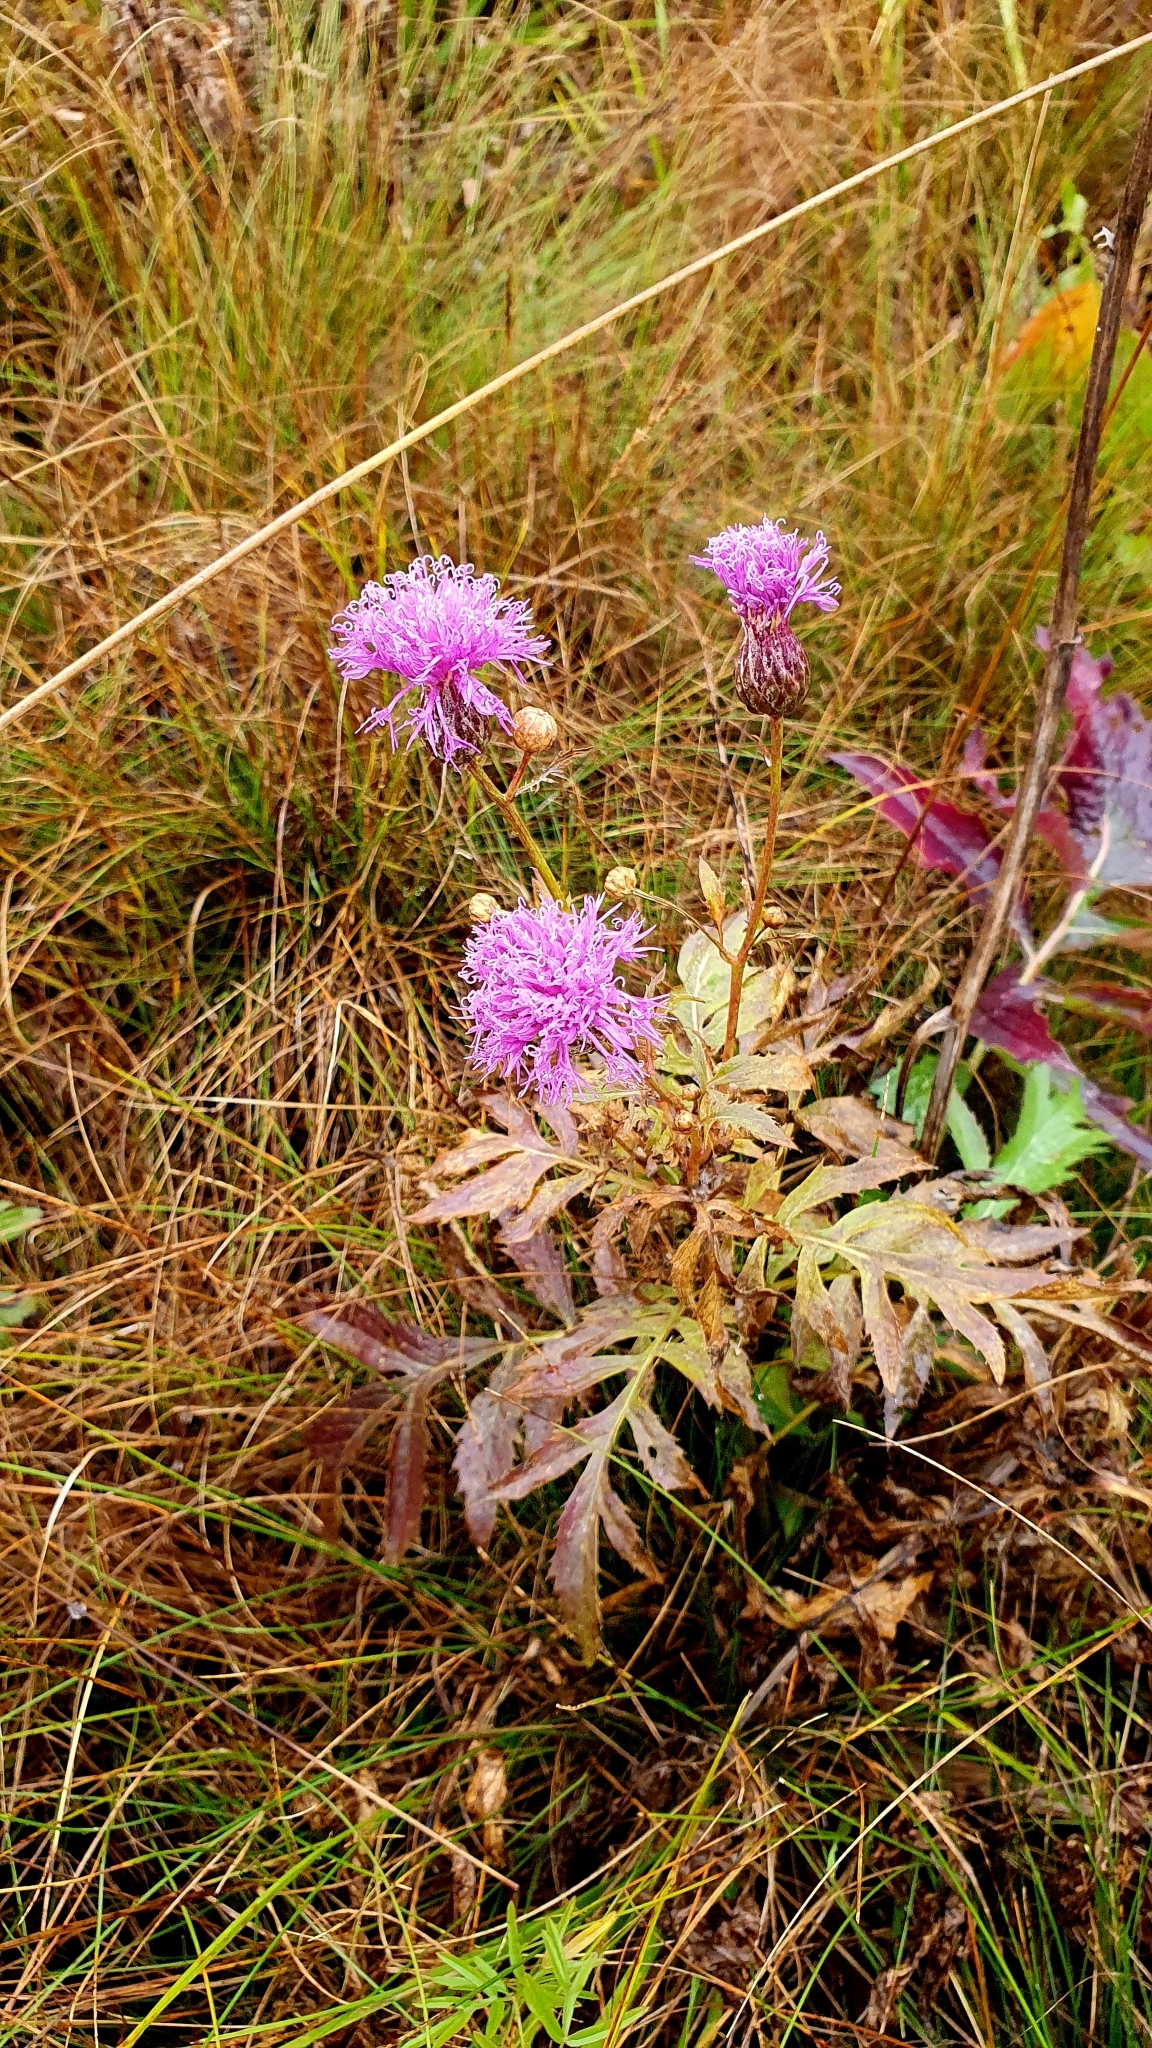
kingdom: Plantae
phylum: Tracheophyta
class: Magnoliopsida
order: Asterales
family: Asteraceae
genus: Serratula
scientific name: Serratula coronata
